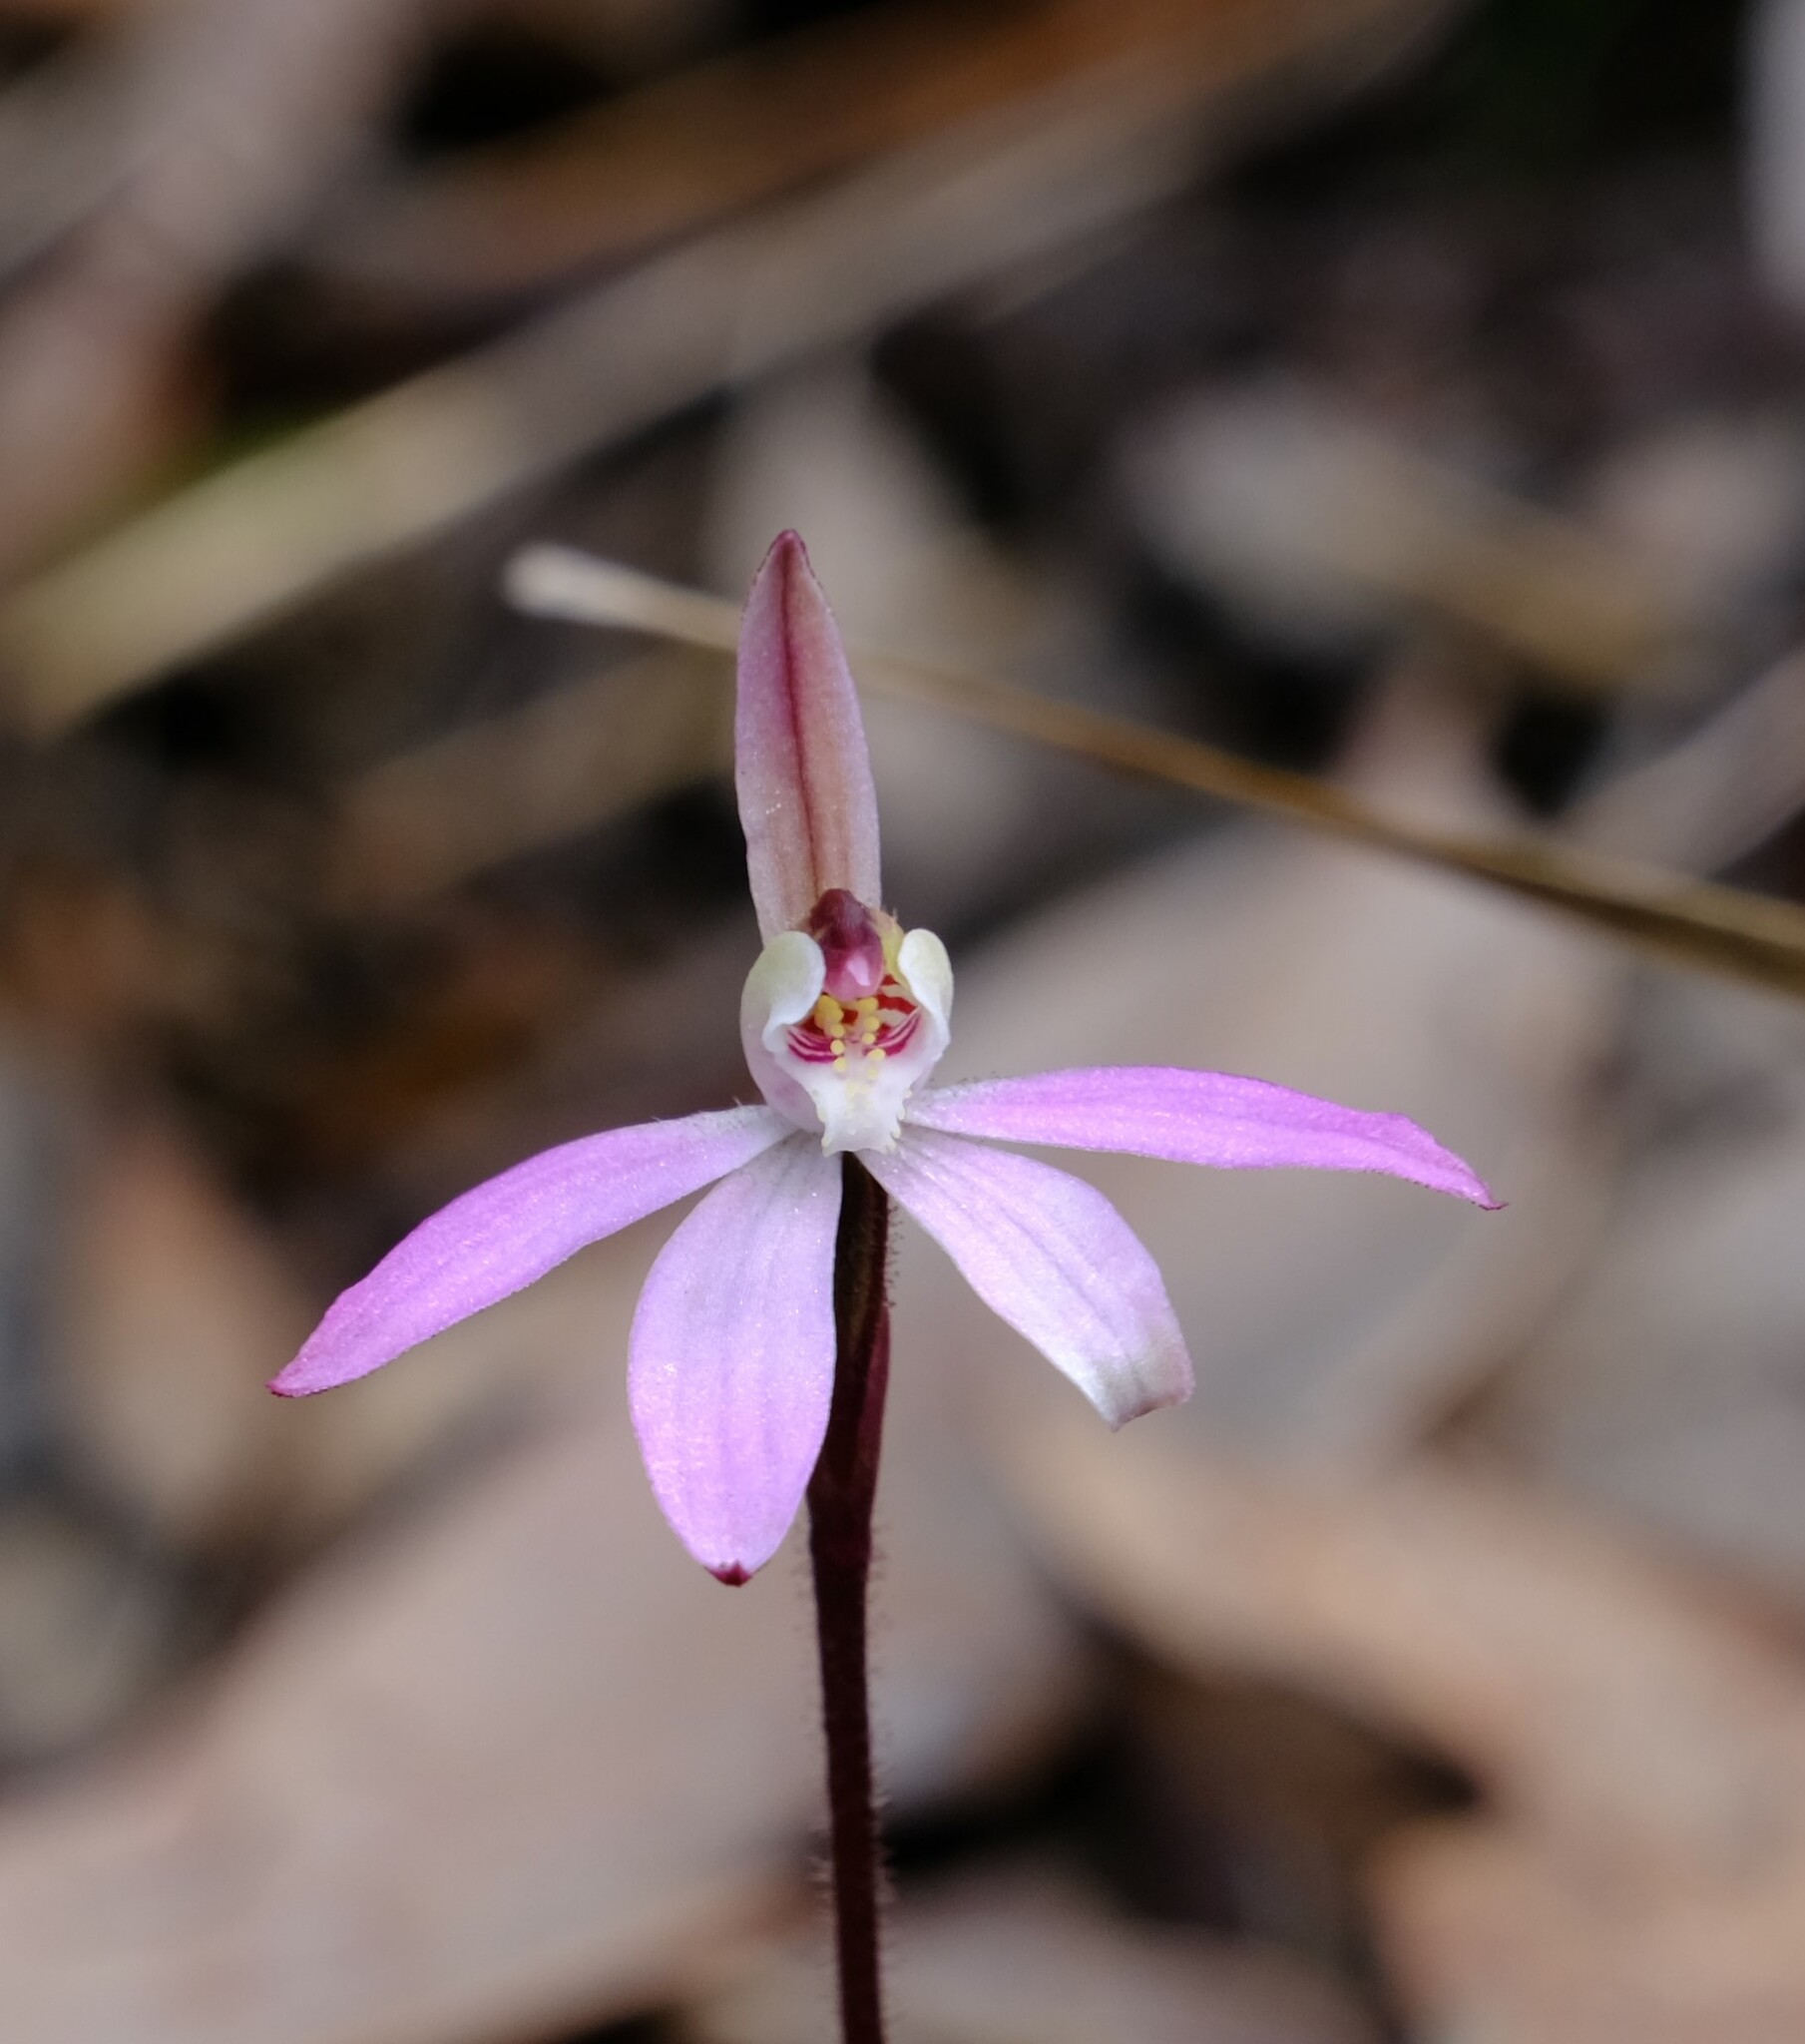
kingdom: Plantae
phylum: Tracheophyta
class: Liliopsida
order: Asparagales
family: Orchidaceae
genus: Caladenia
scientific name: Caladenia fuscata
